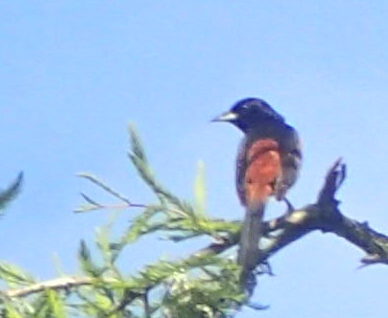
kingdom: Animalia
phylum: Chordata
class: Aves
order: Passeriformes
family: Icteridae
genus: Icterus
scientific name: Icterus spurius
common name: Orchard oriole
